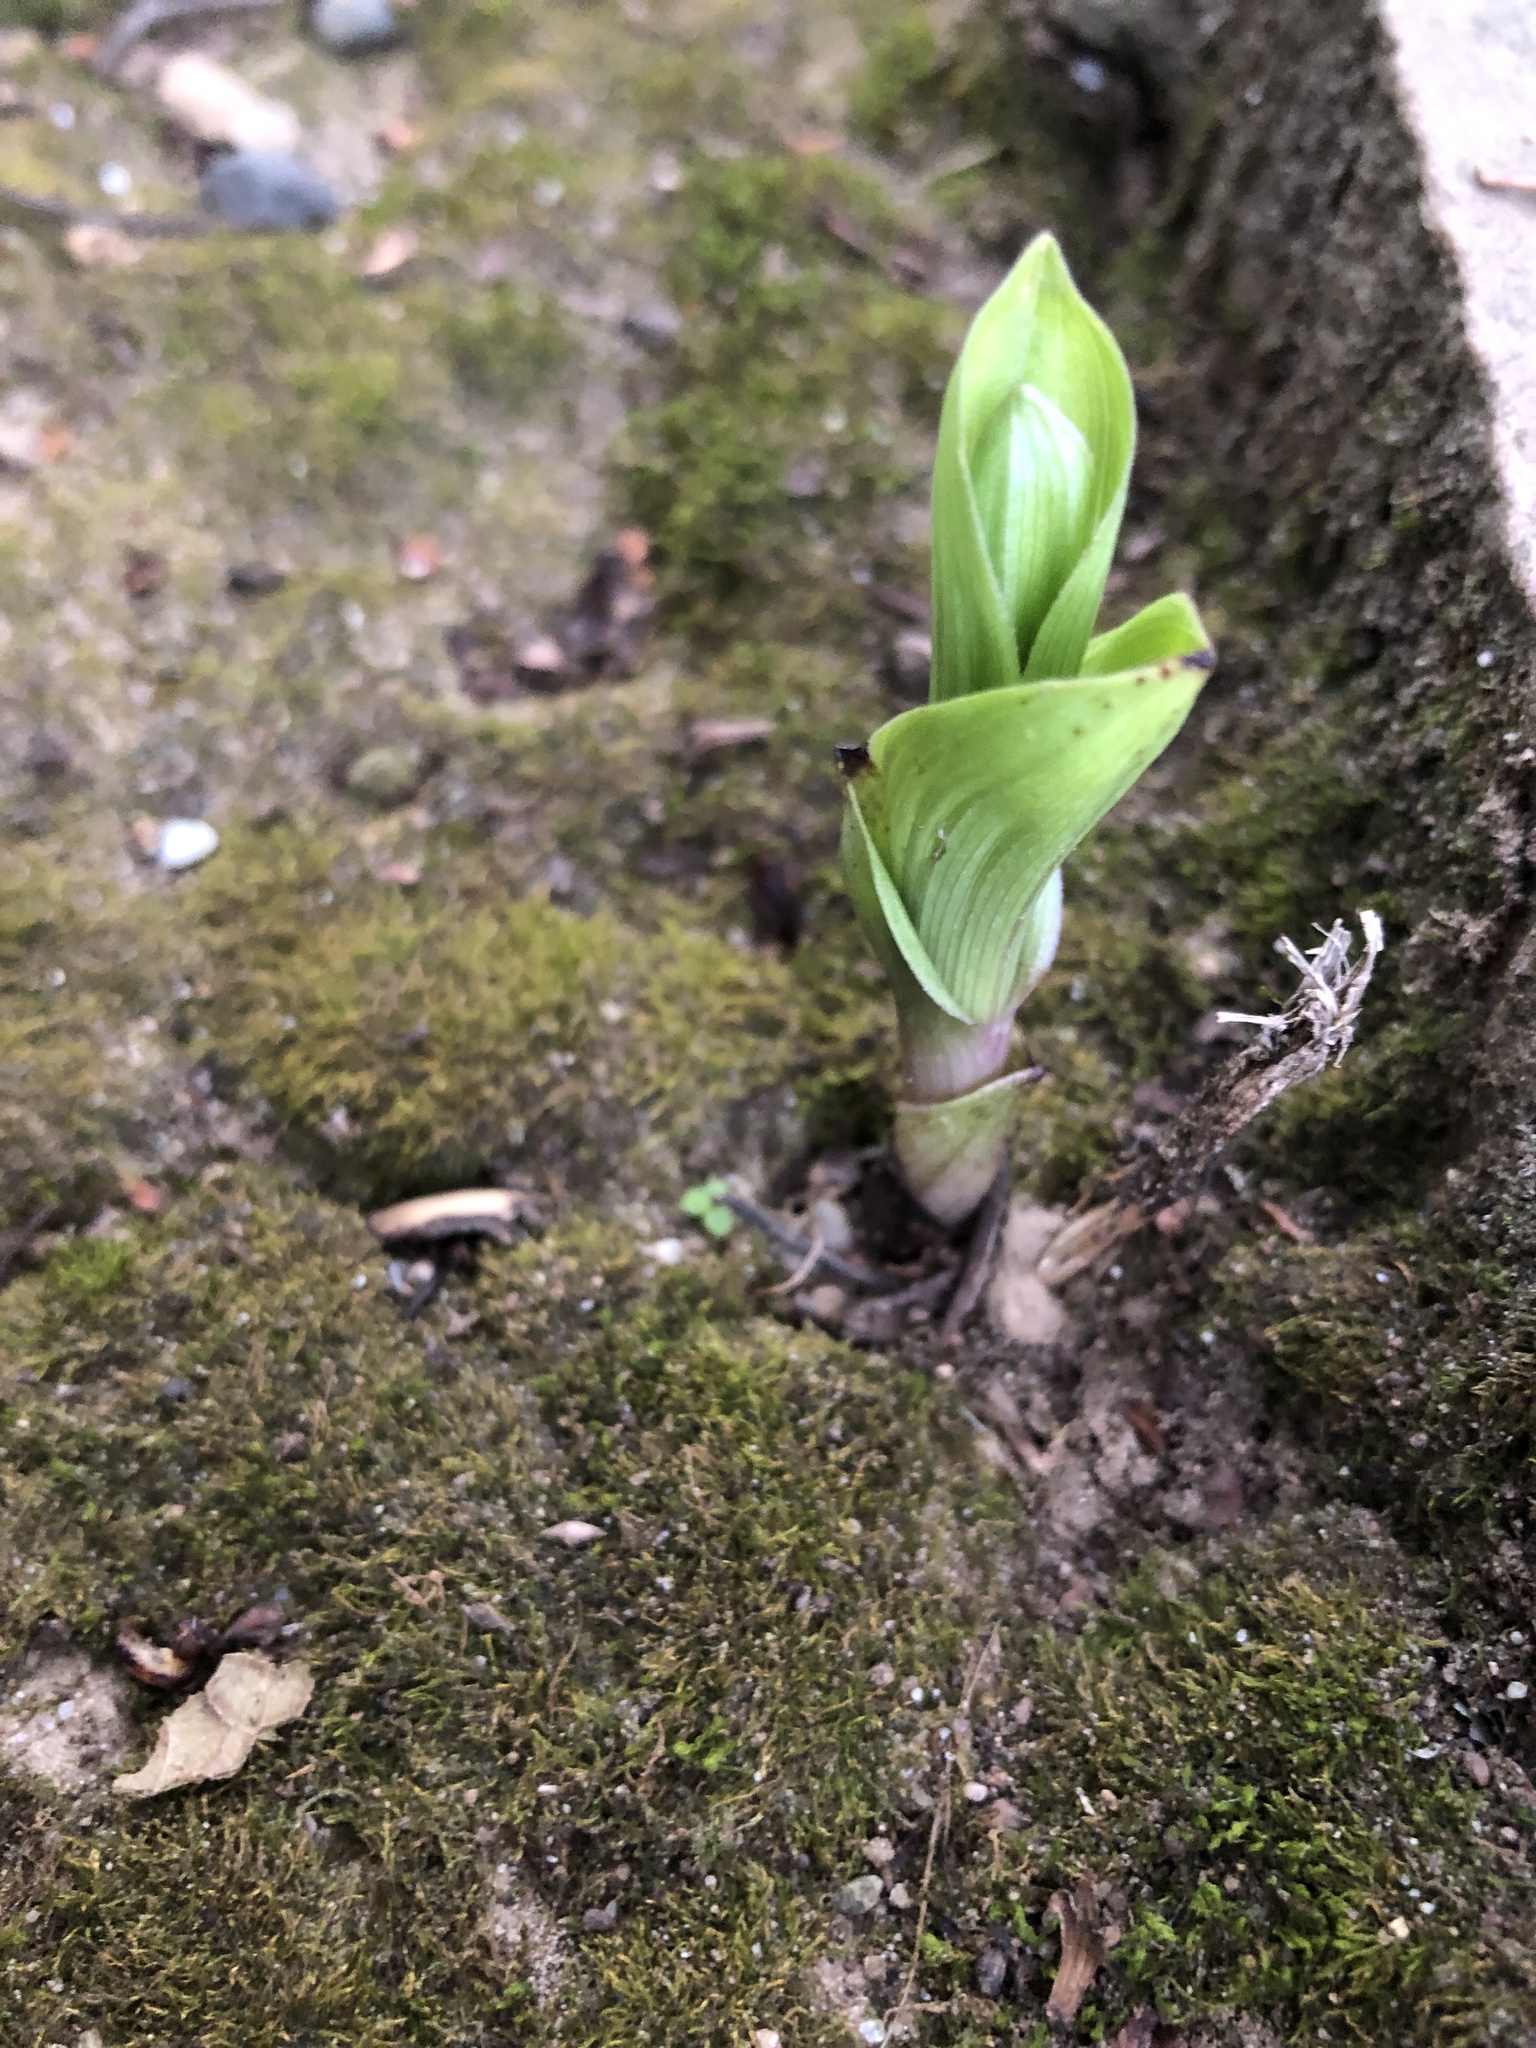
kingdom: Plantae
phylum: Tracheophyta
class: Liliopsida
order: Asparagales
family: Orchidaceae
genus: Epipactis
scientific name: Epipactis helleborine
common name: Broad-leaved helleborine
